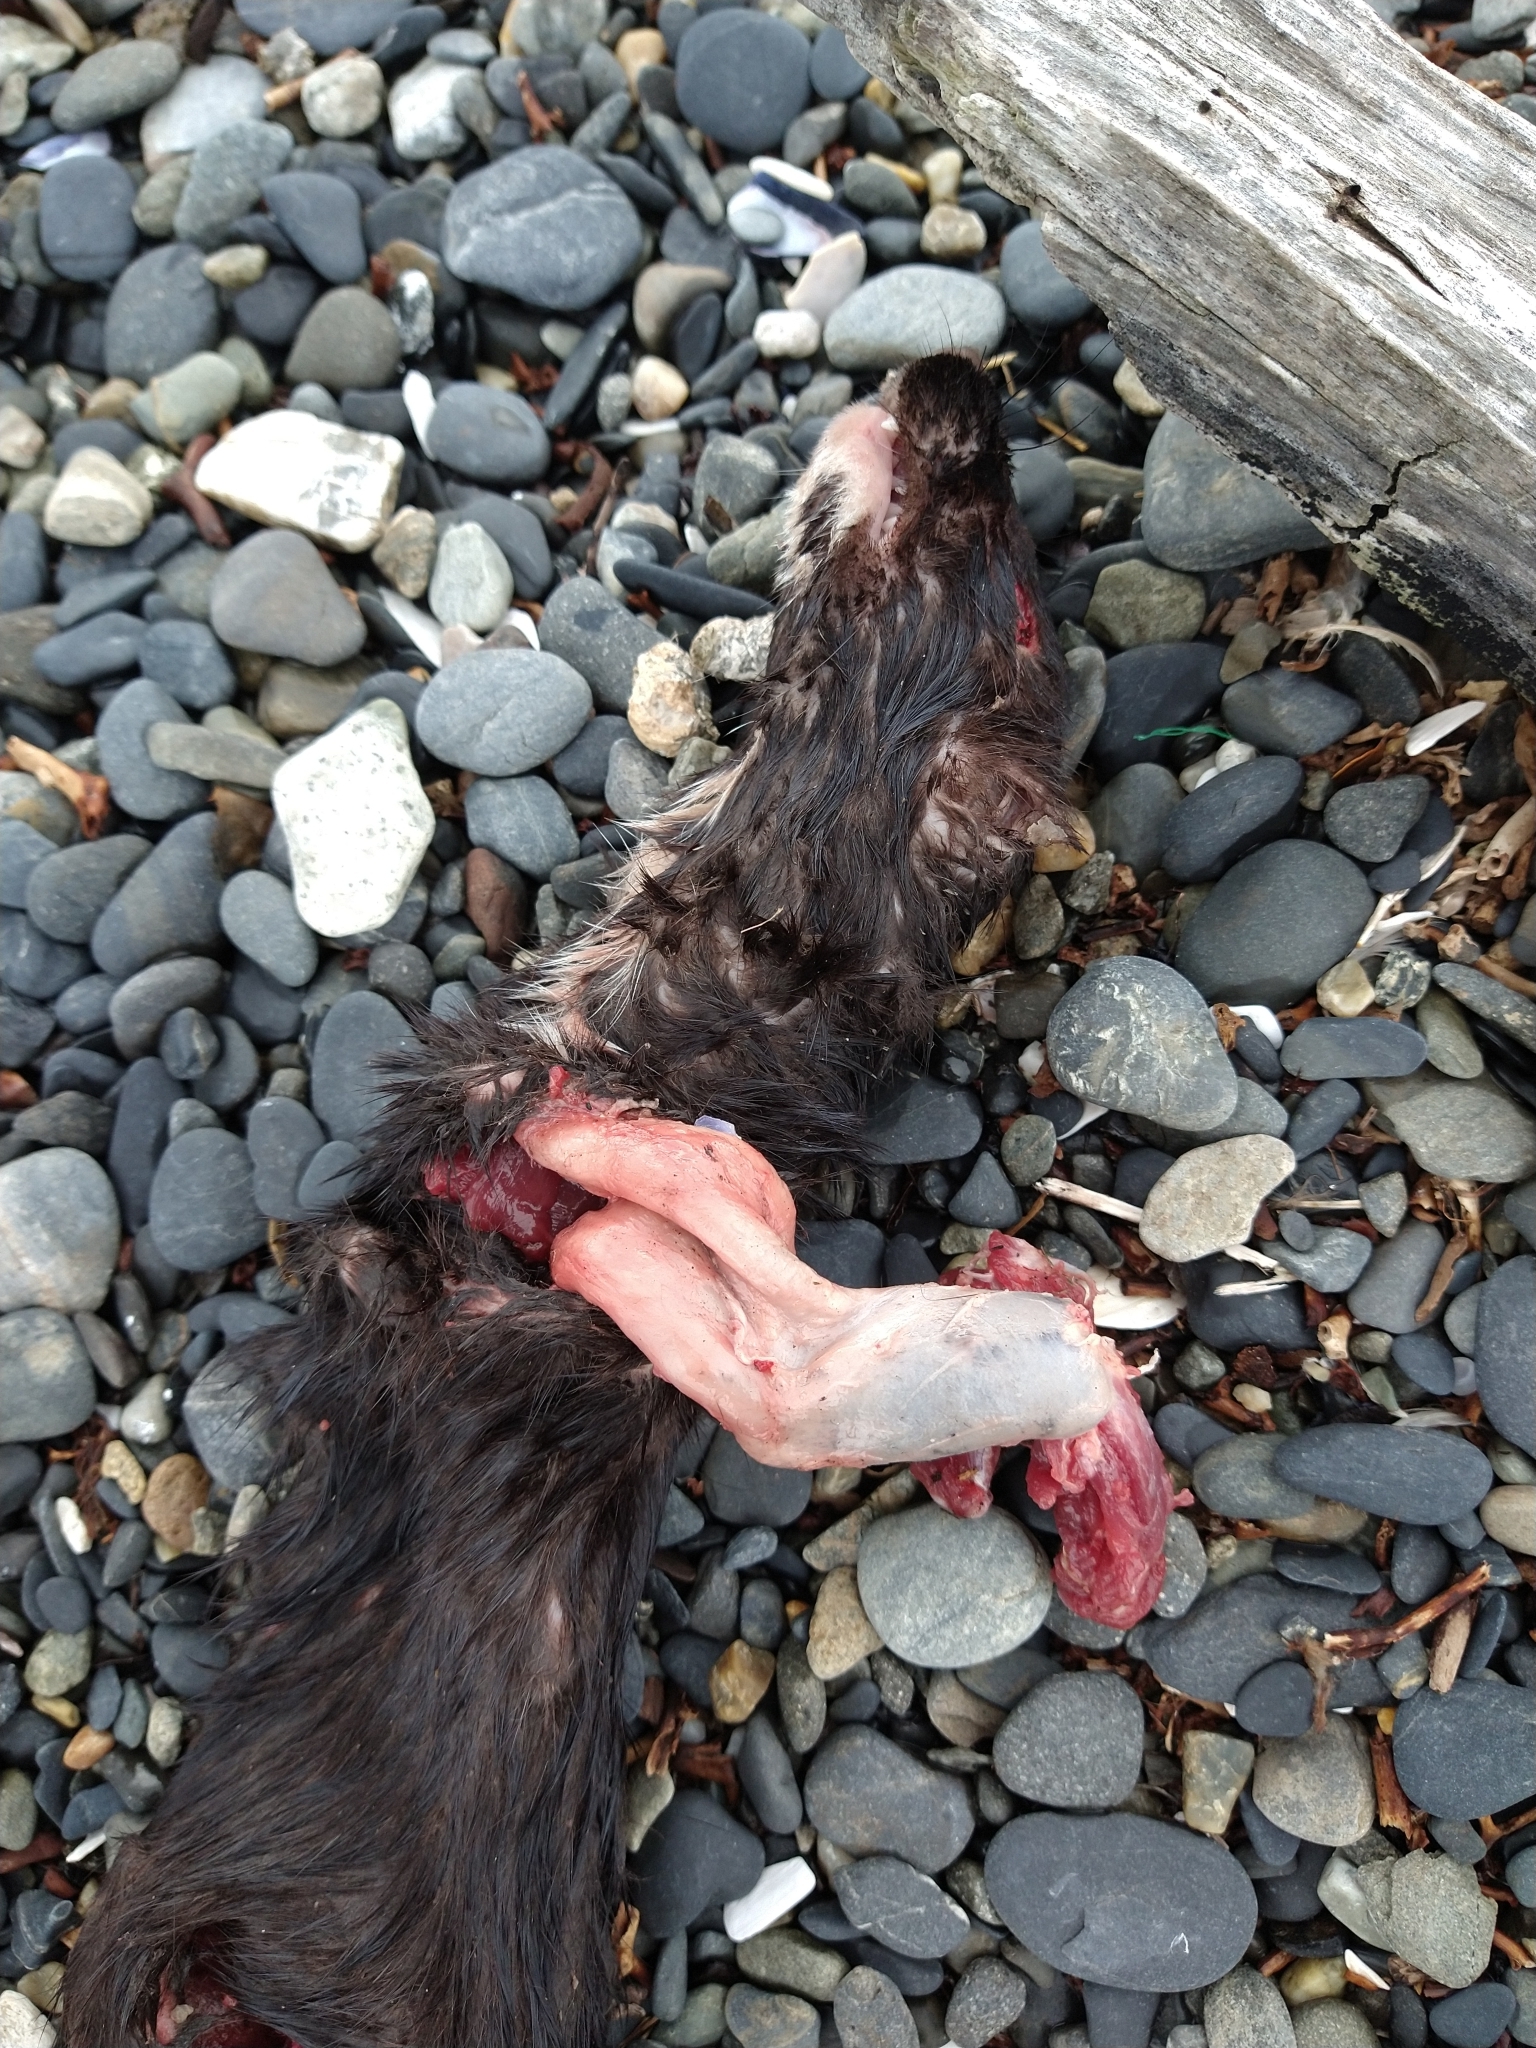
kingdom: Animalia
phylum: Chordata
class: Mammalia
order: Carnivora
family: Mustelidae
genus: Mustela
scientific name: Mustela
